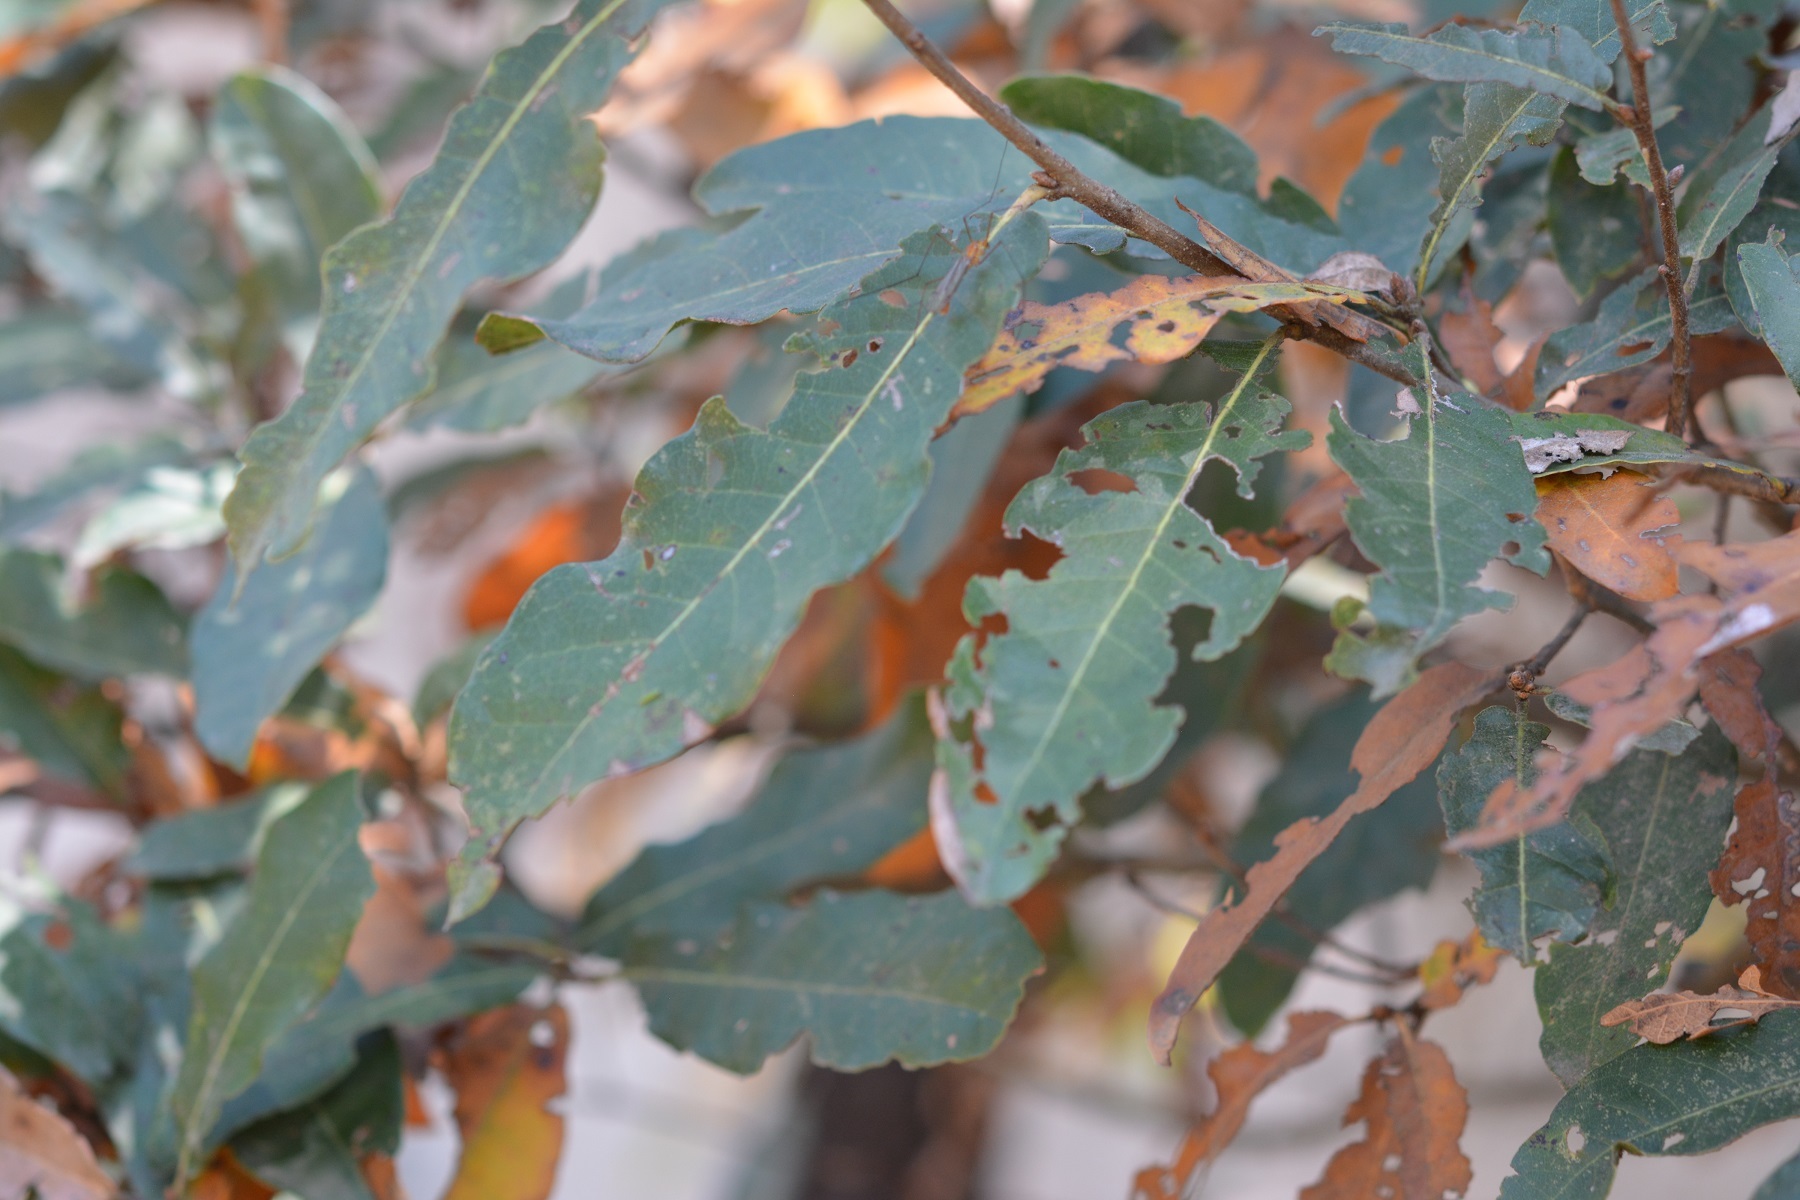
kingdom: Plantae
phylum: Tracheophyta
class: Magnoliopsida
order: Fagales
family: Fagaceae
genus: Quercus
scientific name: Quercus crispipilis
